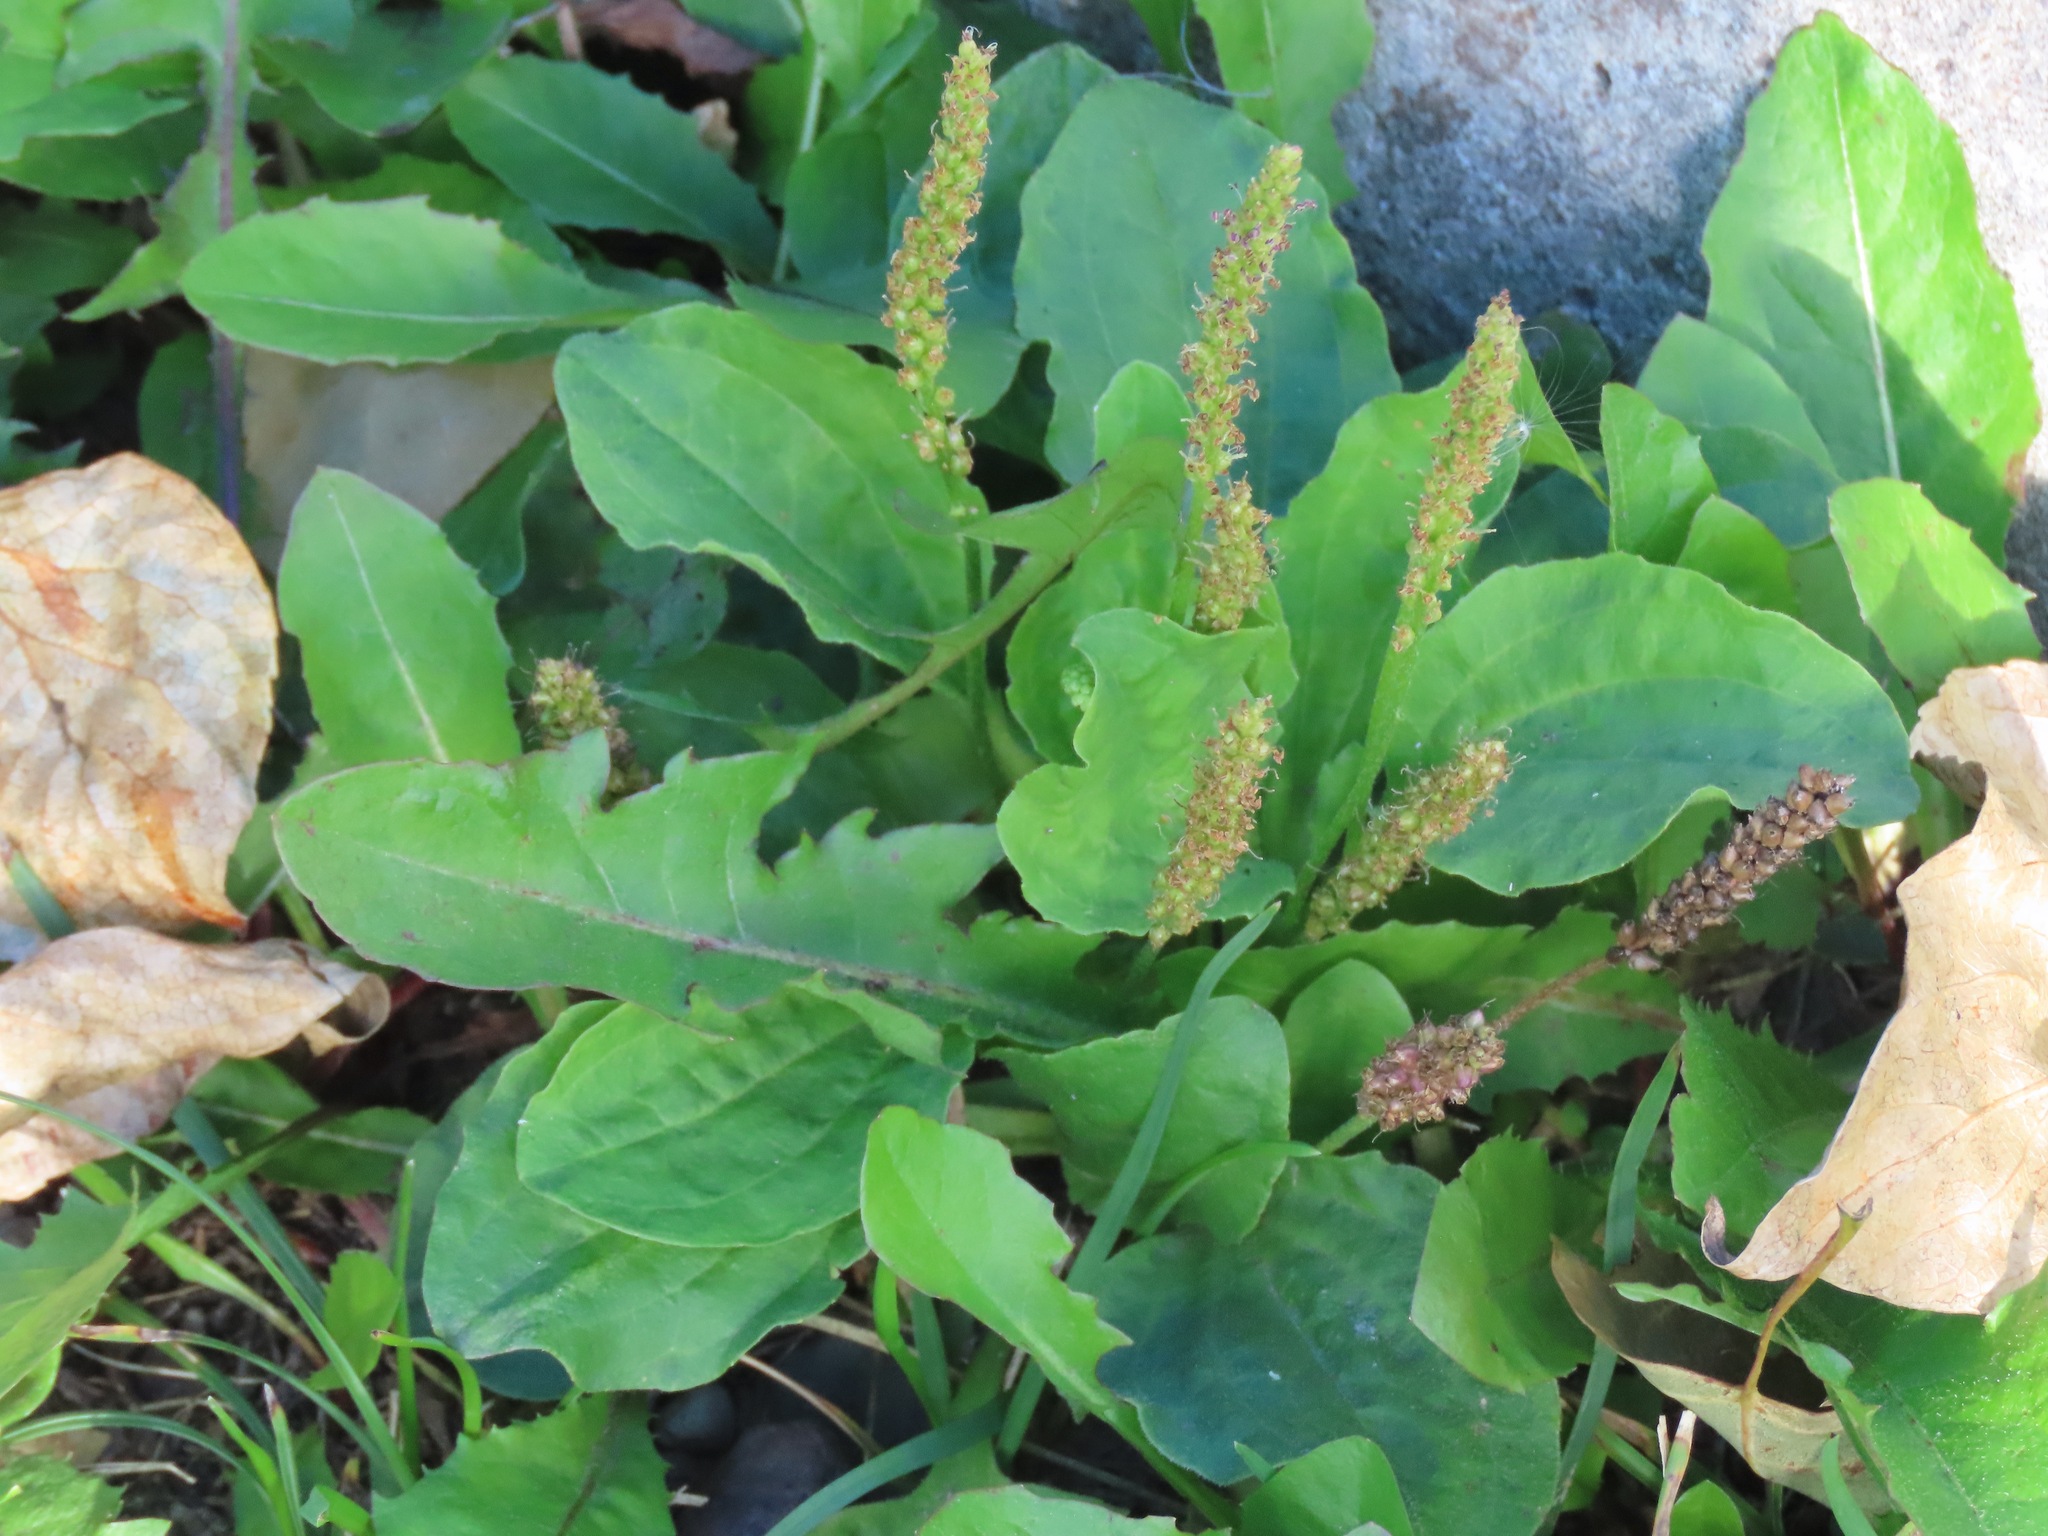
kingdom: Plantae
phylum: Tracheophyta
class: Magnoliopsida
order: Lamiales
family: Plantaginaceae
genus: Plantago
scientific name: Plantago major
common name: Common plantain
